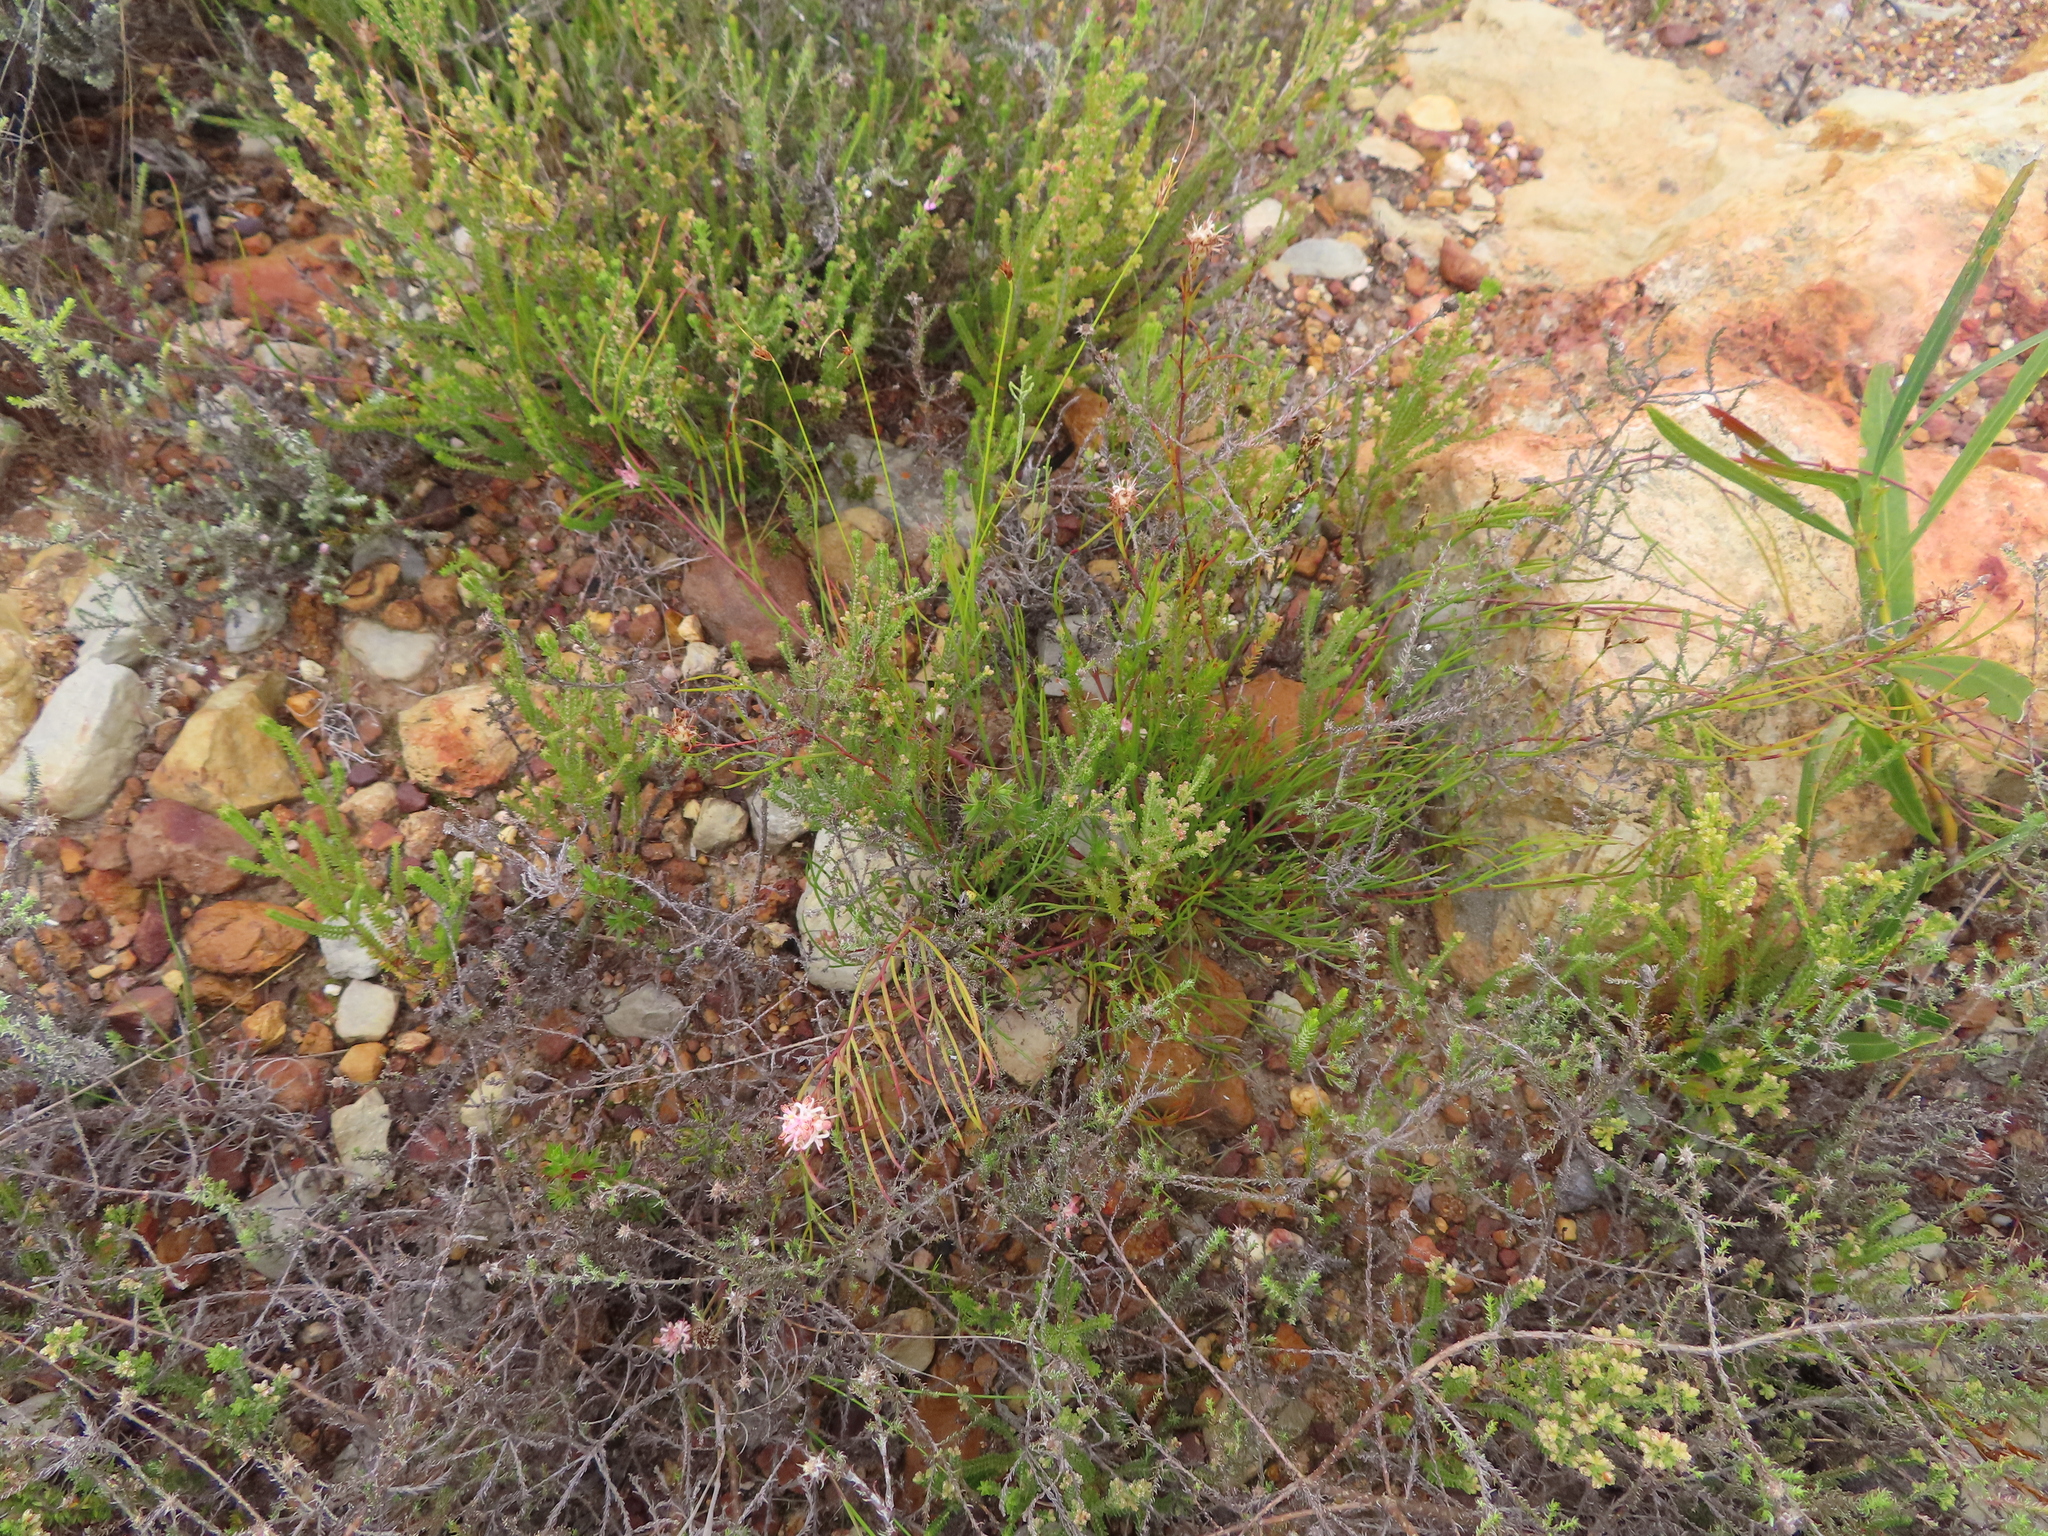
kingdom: Plantae
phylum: Tracheophyta
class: Magnoliopsida
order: Proteales
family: Proteaceae
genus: Serruria
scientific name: Serruria flagellifolia
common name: Houwhoek spiderhead
